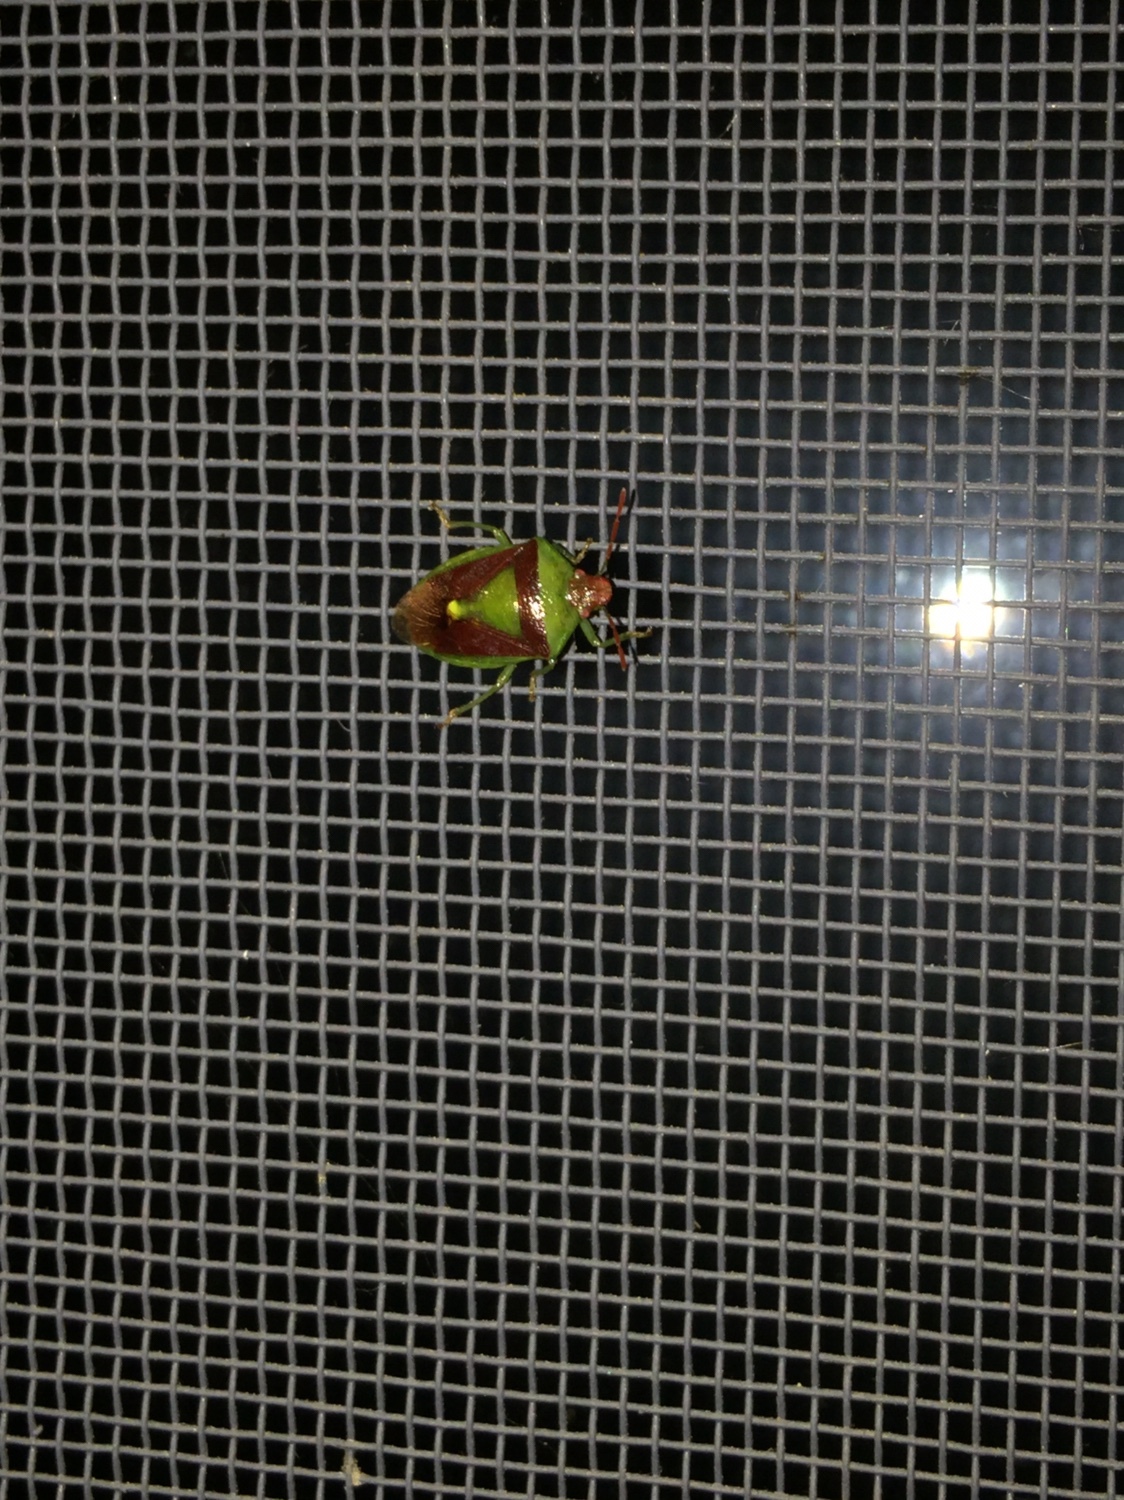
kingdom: Animalia
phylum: Arthropoda
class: Insecta
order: Hemiptera
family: Pentatomidae
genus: Banasa
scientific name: Banasa dimidiata
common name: Green burgundy stink bug
